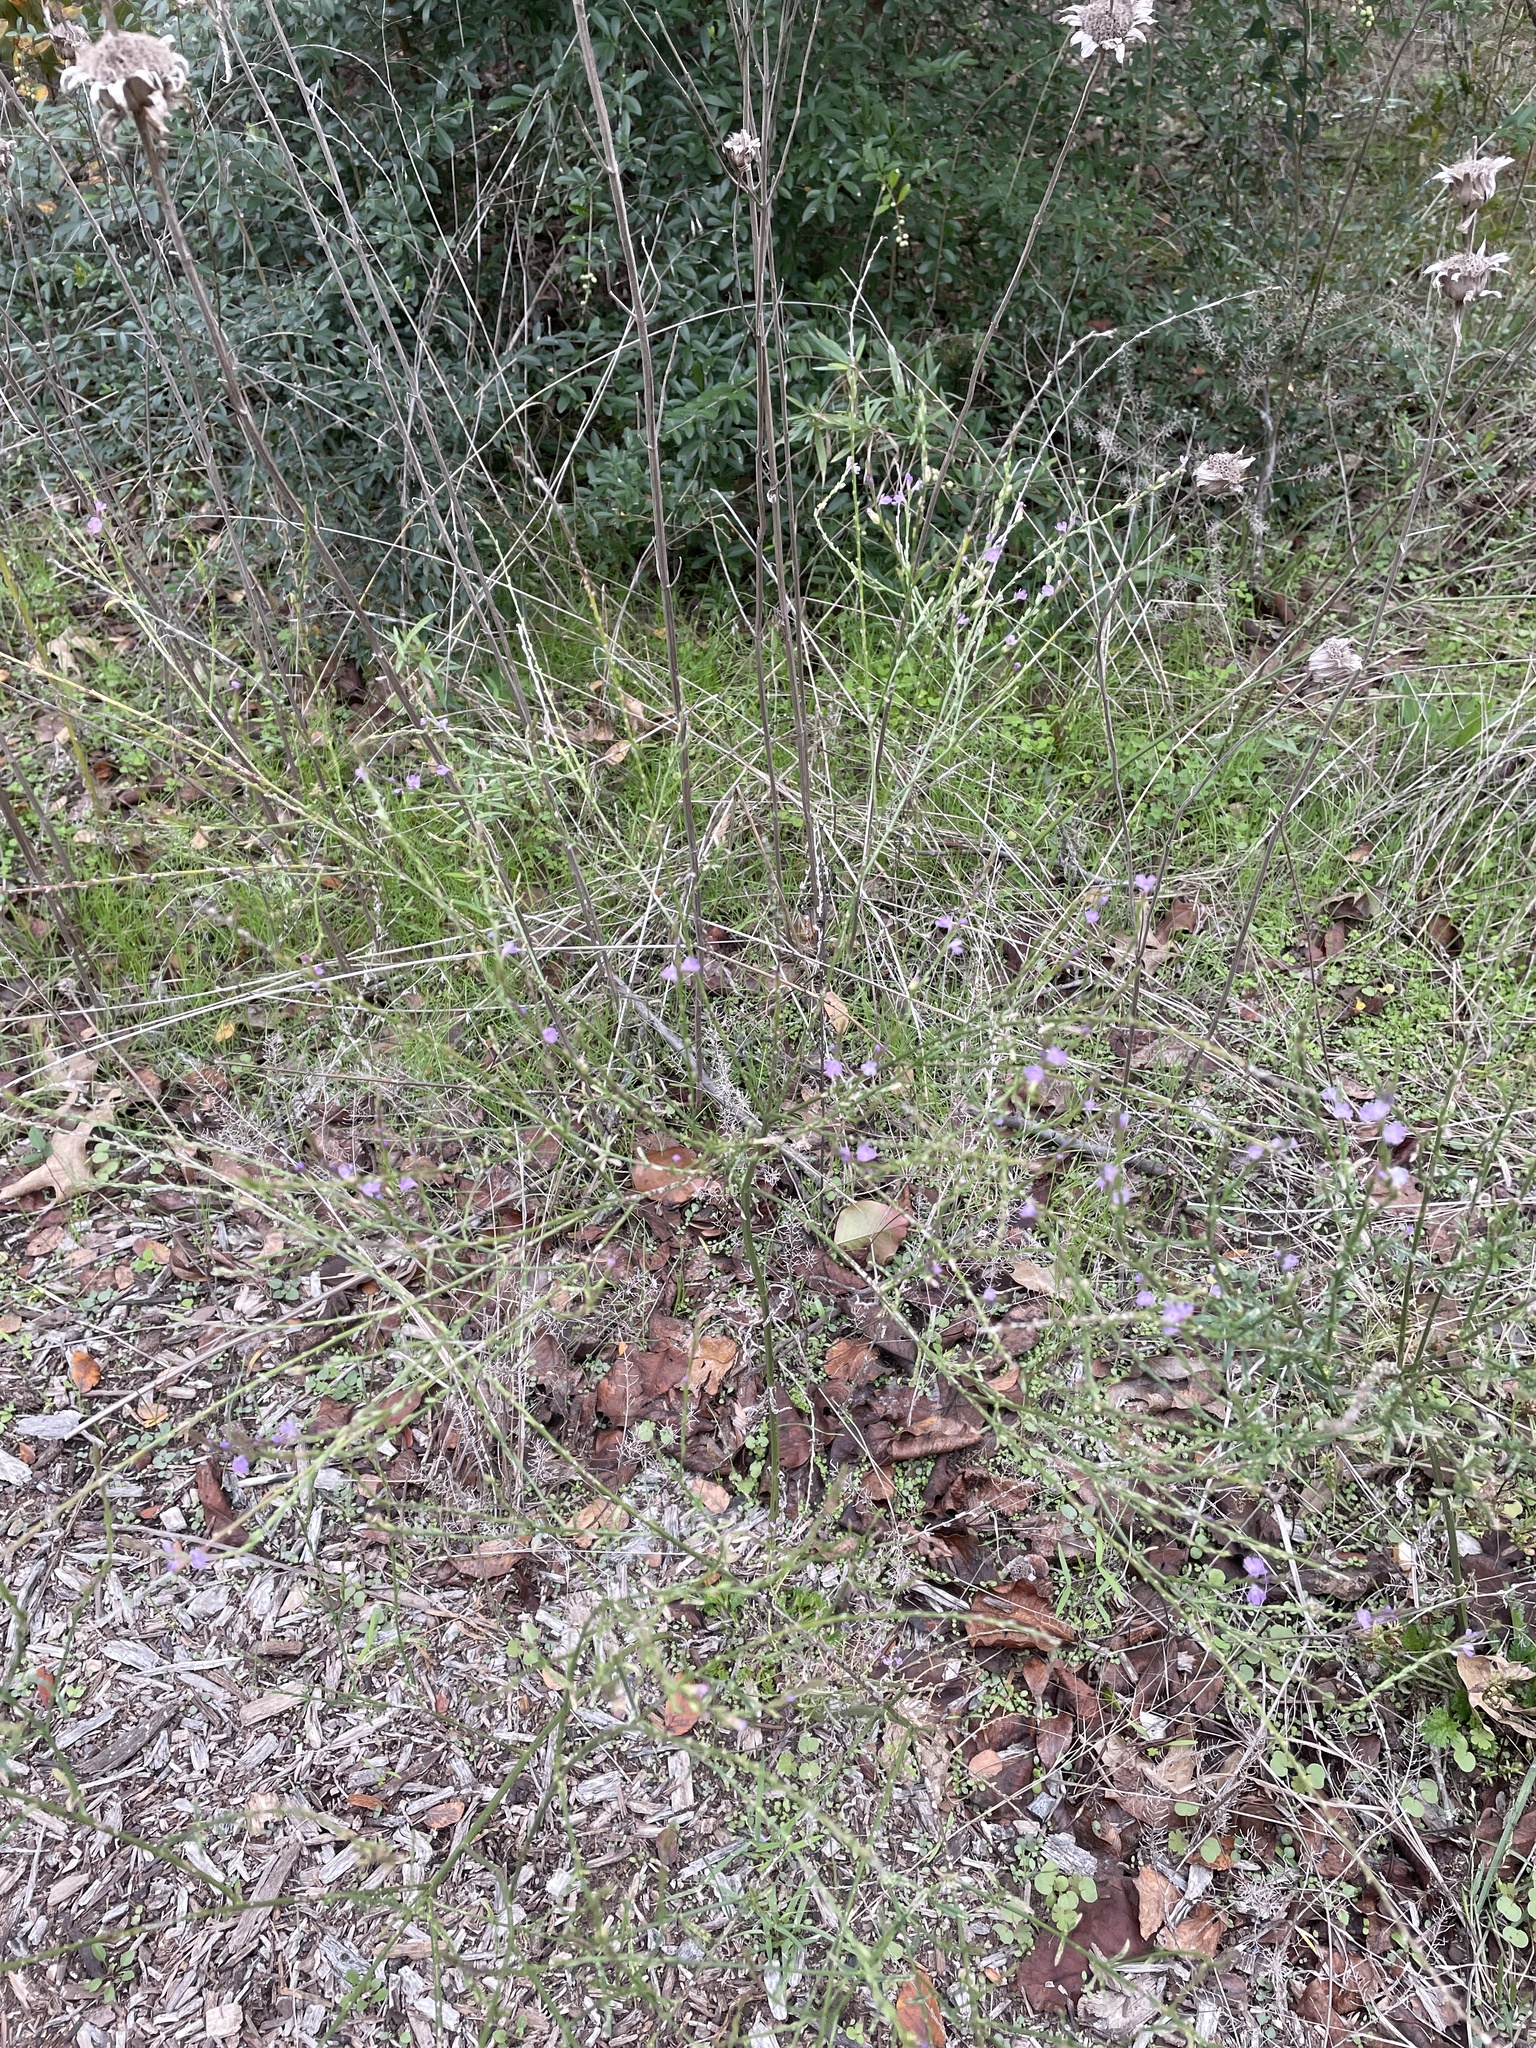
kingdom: Plantae
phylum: Tracheophyta
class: Magnoliopsida
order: Lamiales
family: Verbenaceae
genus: Verbena
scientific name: Verbena halei
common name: Texas vervain
